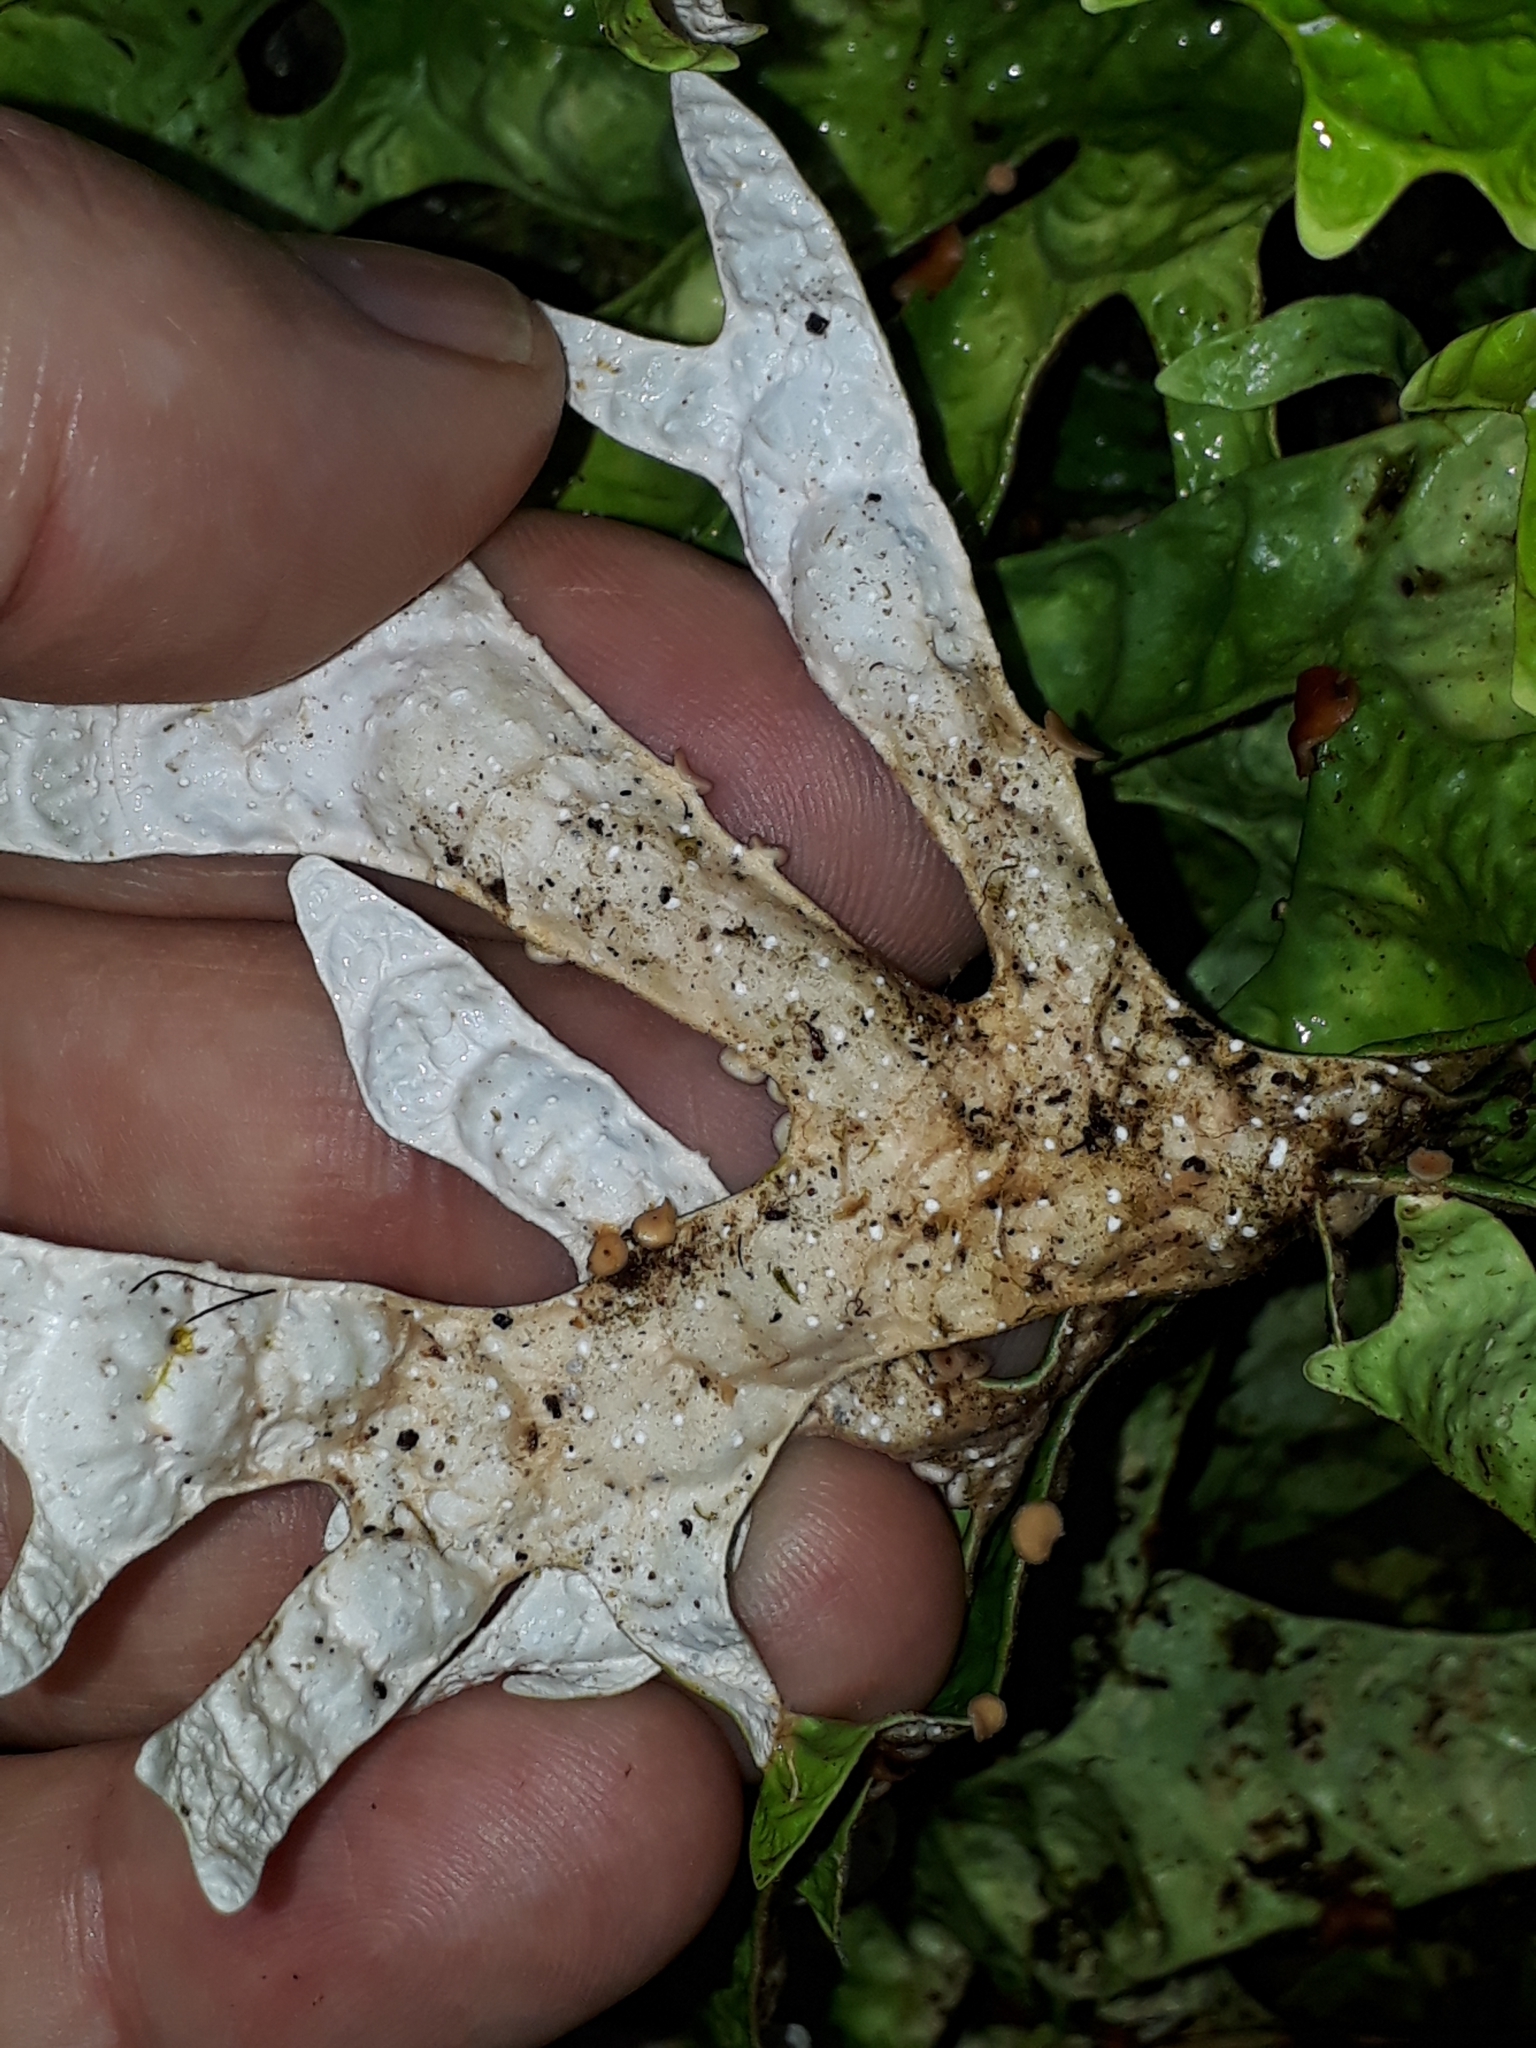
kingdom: Fungi
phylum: Ascomycota
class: Lecanoromycetes
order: Peltigerales
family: Lobariaceae
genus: Pseudocyphellaria
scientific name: Pseudocyphellaria rufovirescens
